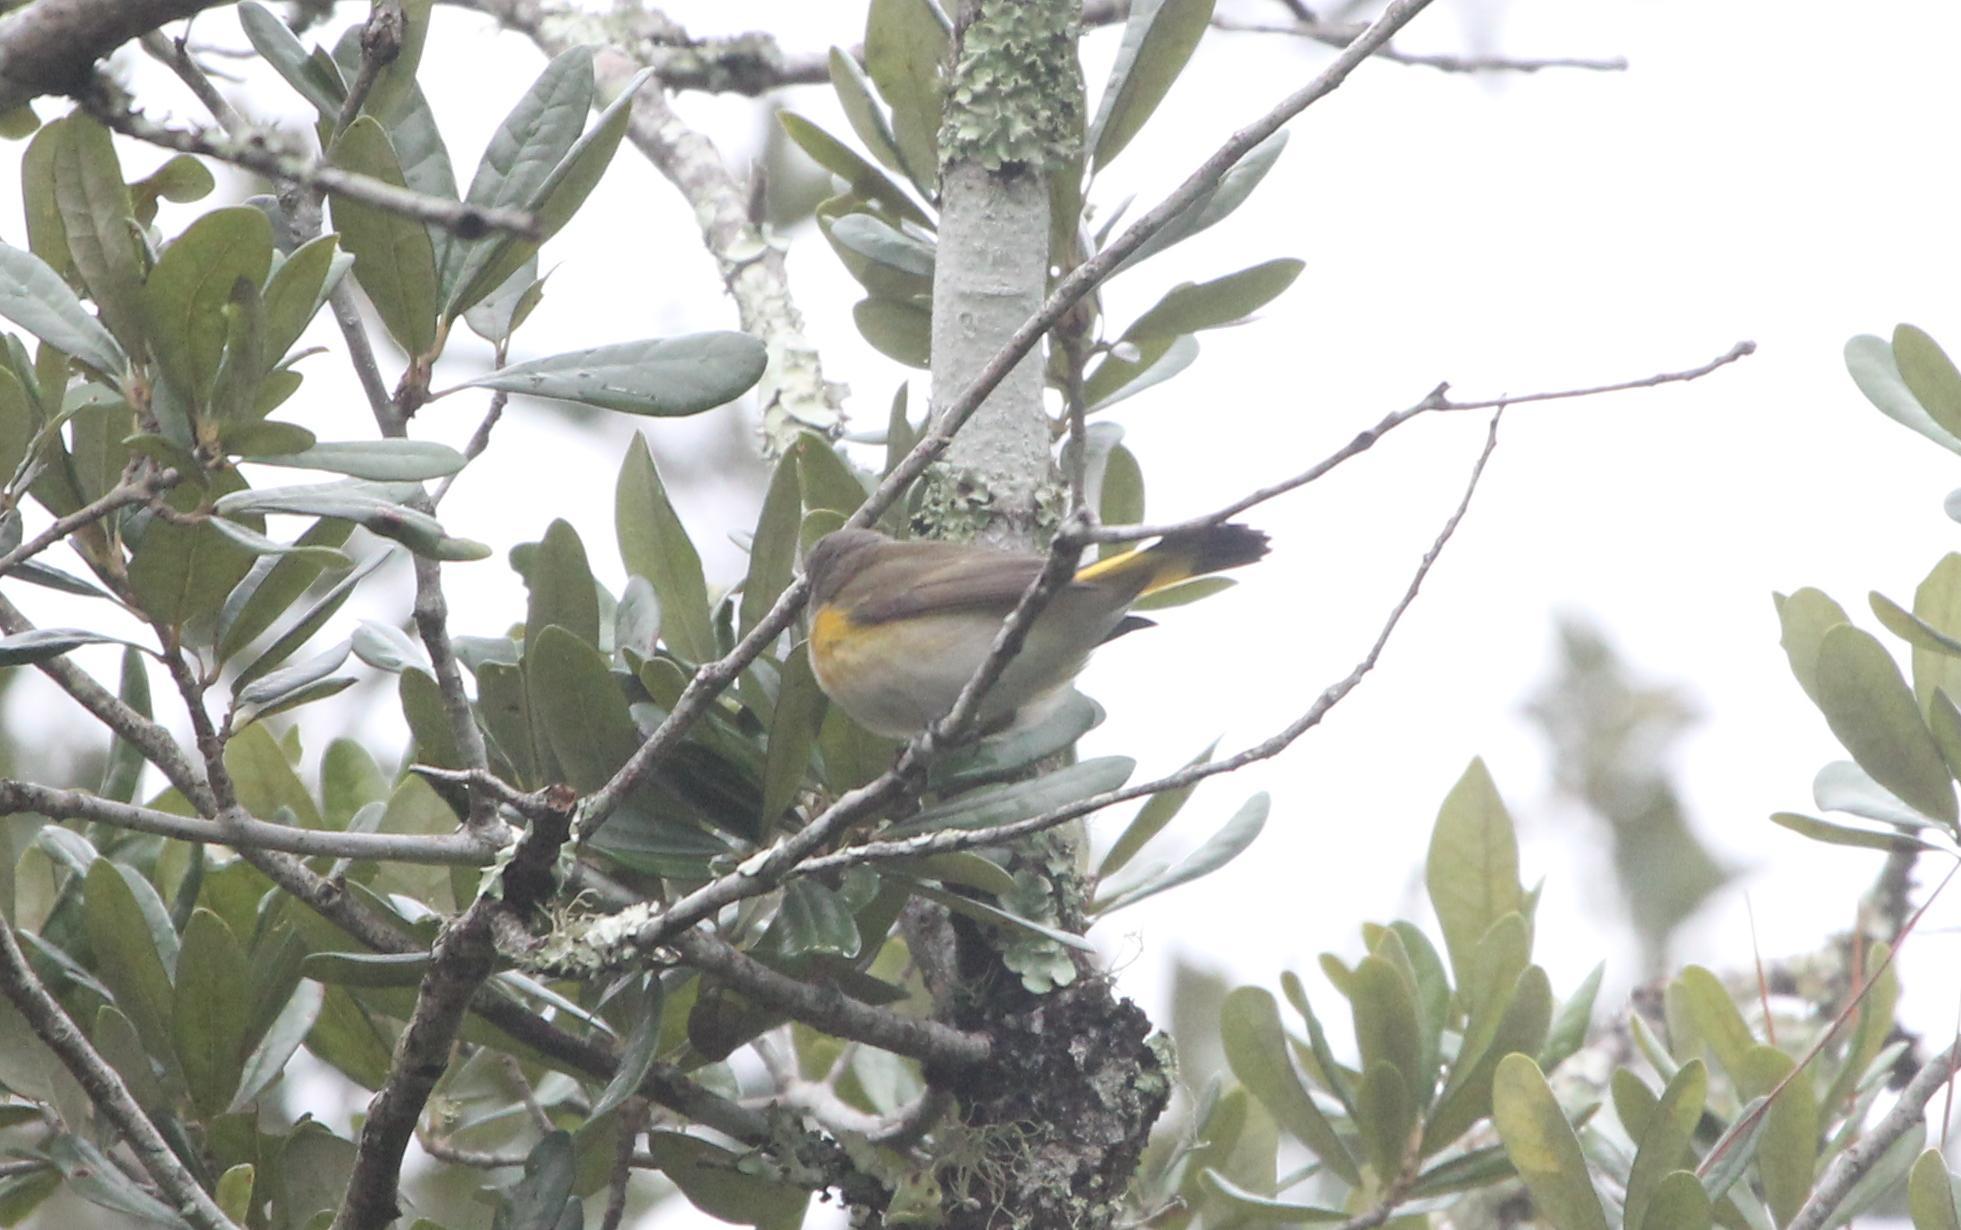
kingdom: Animalia
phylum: Chordata
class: Aves
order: Passeriformes
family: Parulidae
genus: Setophaga
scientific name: Setophaga ruticilla
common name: American redstart
